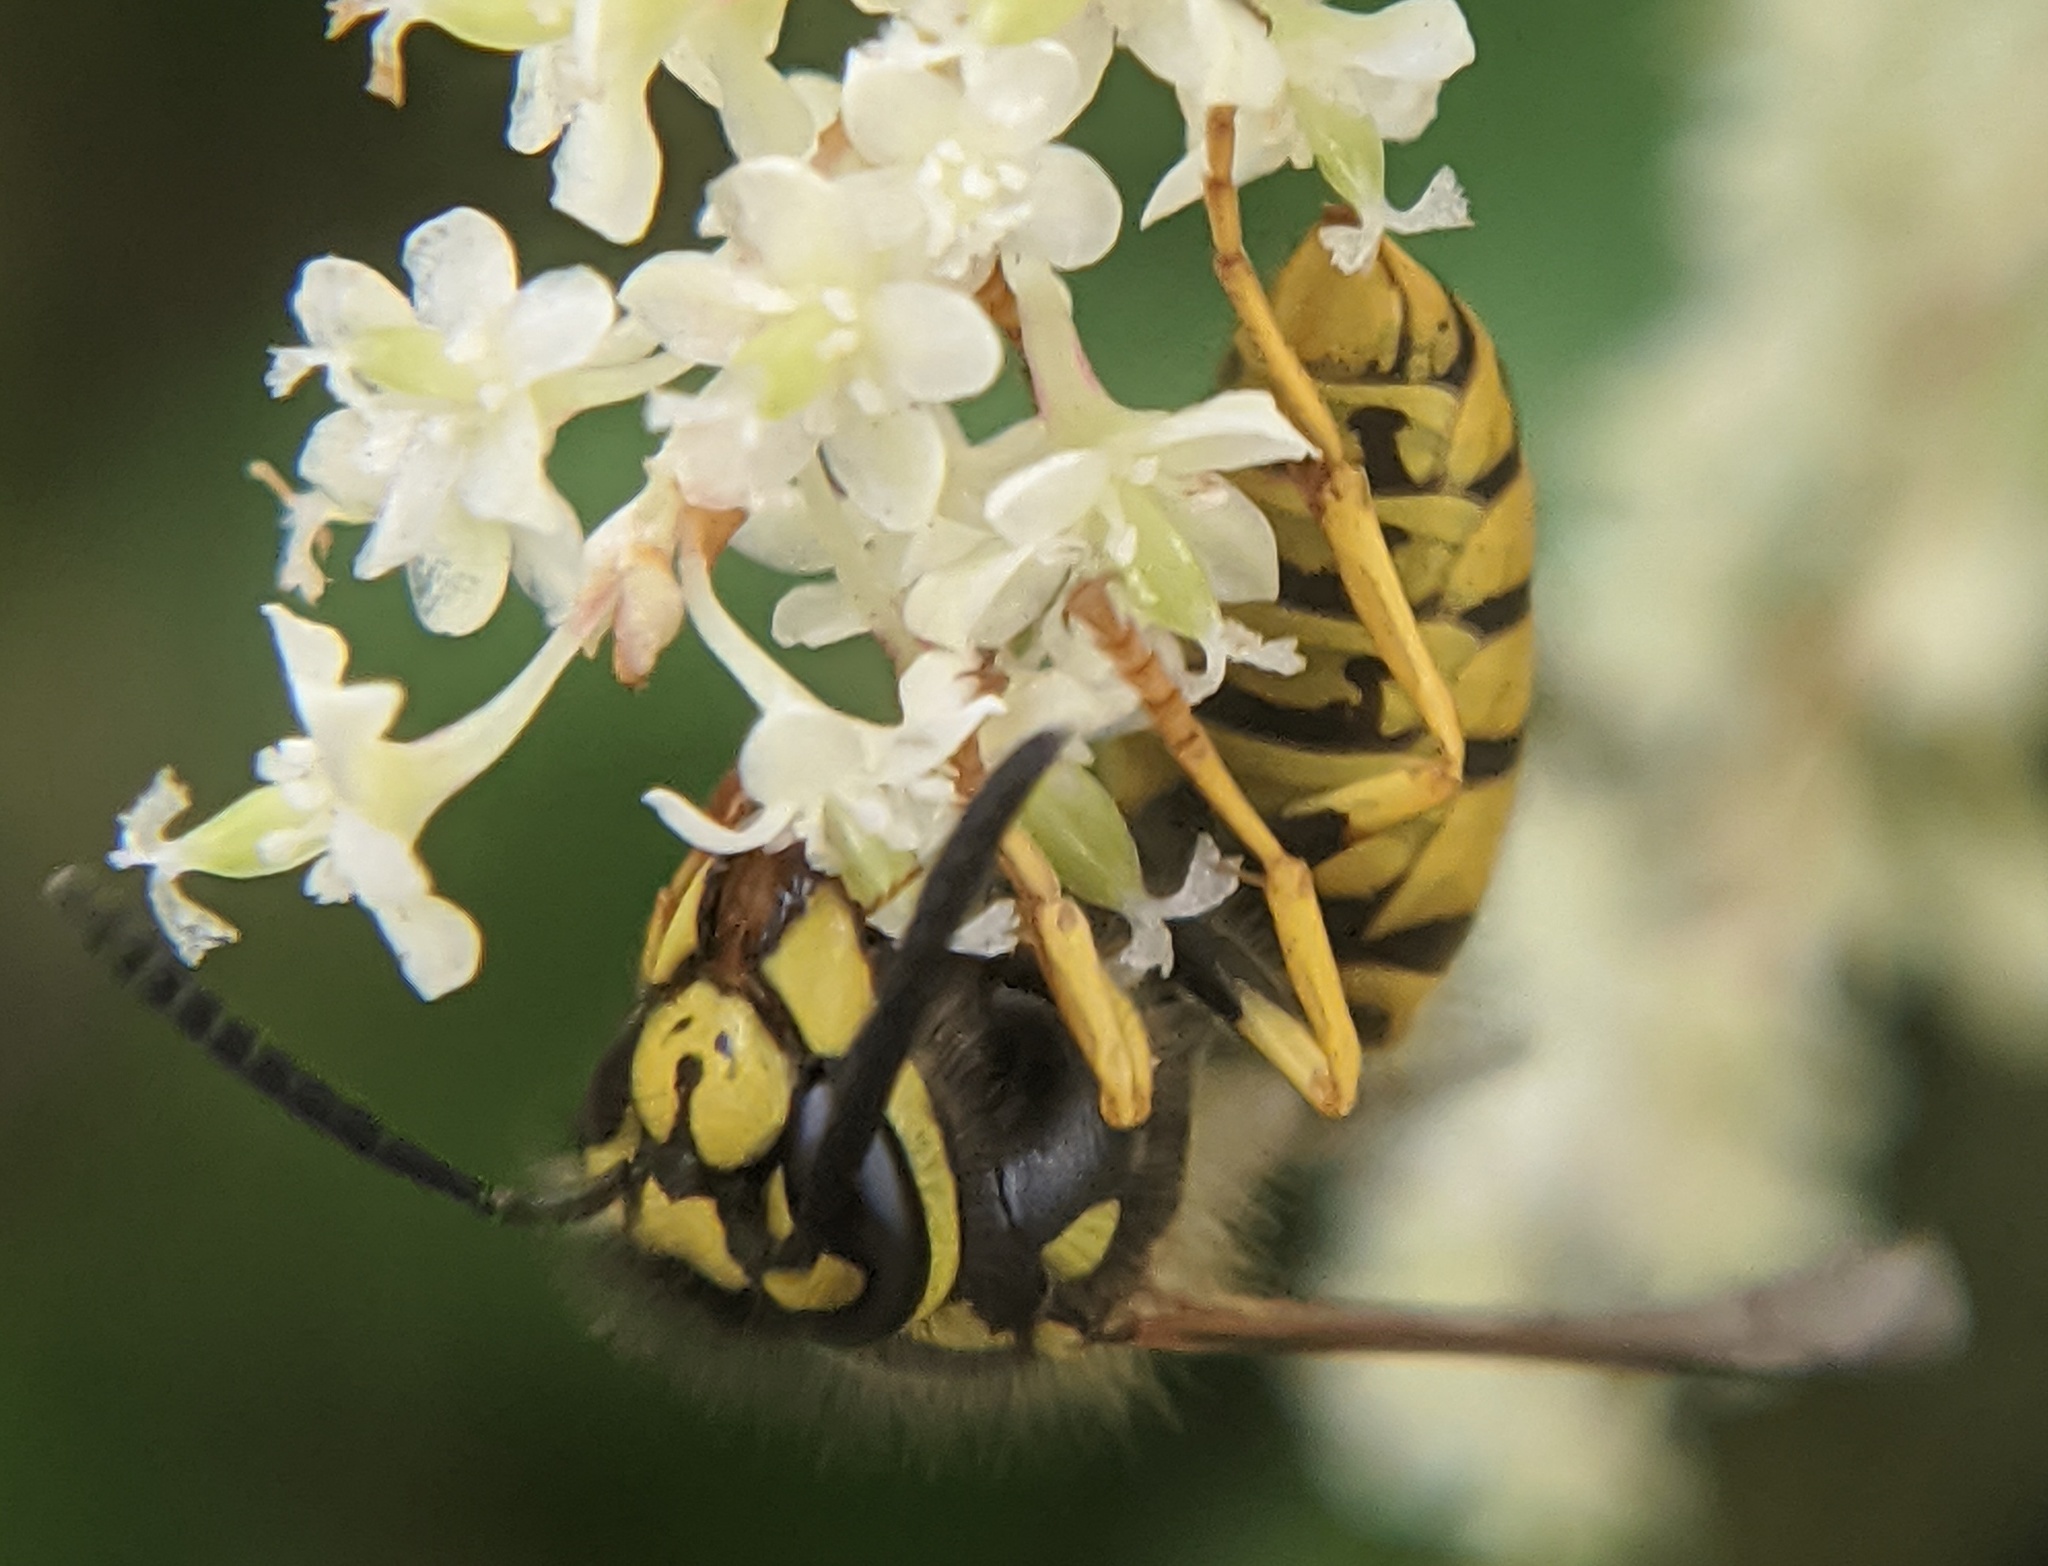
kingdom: Animalia
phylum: Arthropoda
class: Insecta
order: Hymenoptera
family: Vespidae
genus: Vespula
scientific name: Vespula
